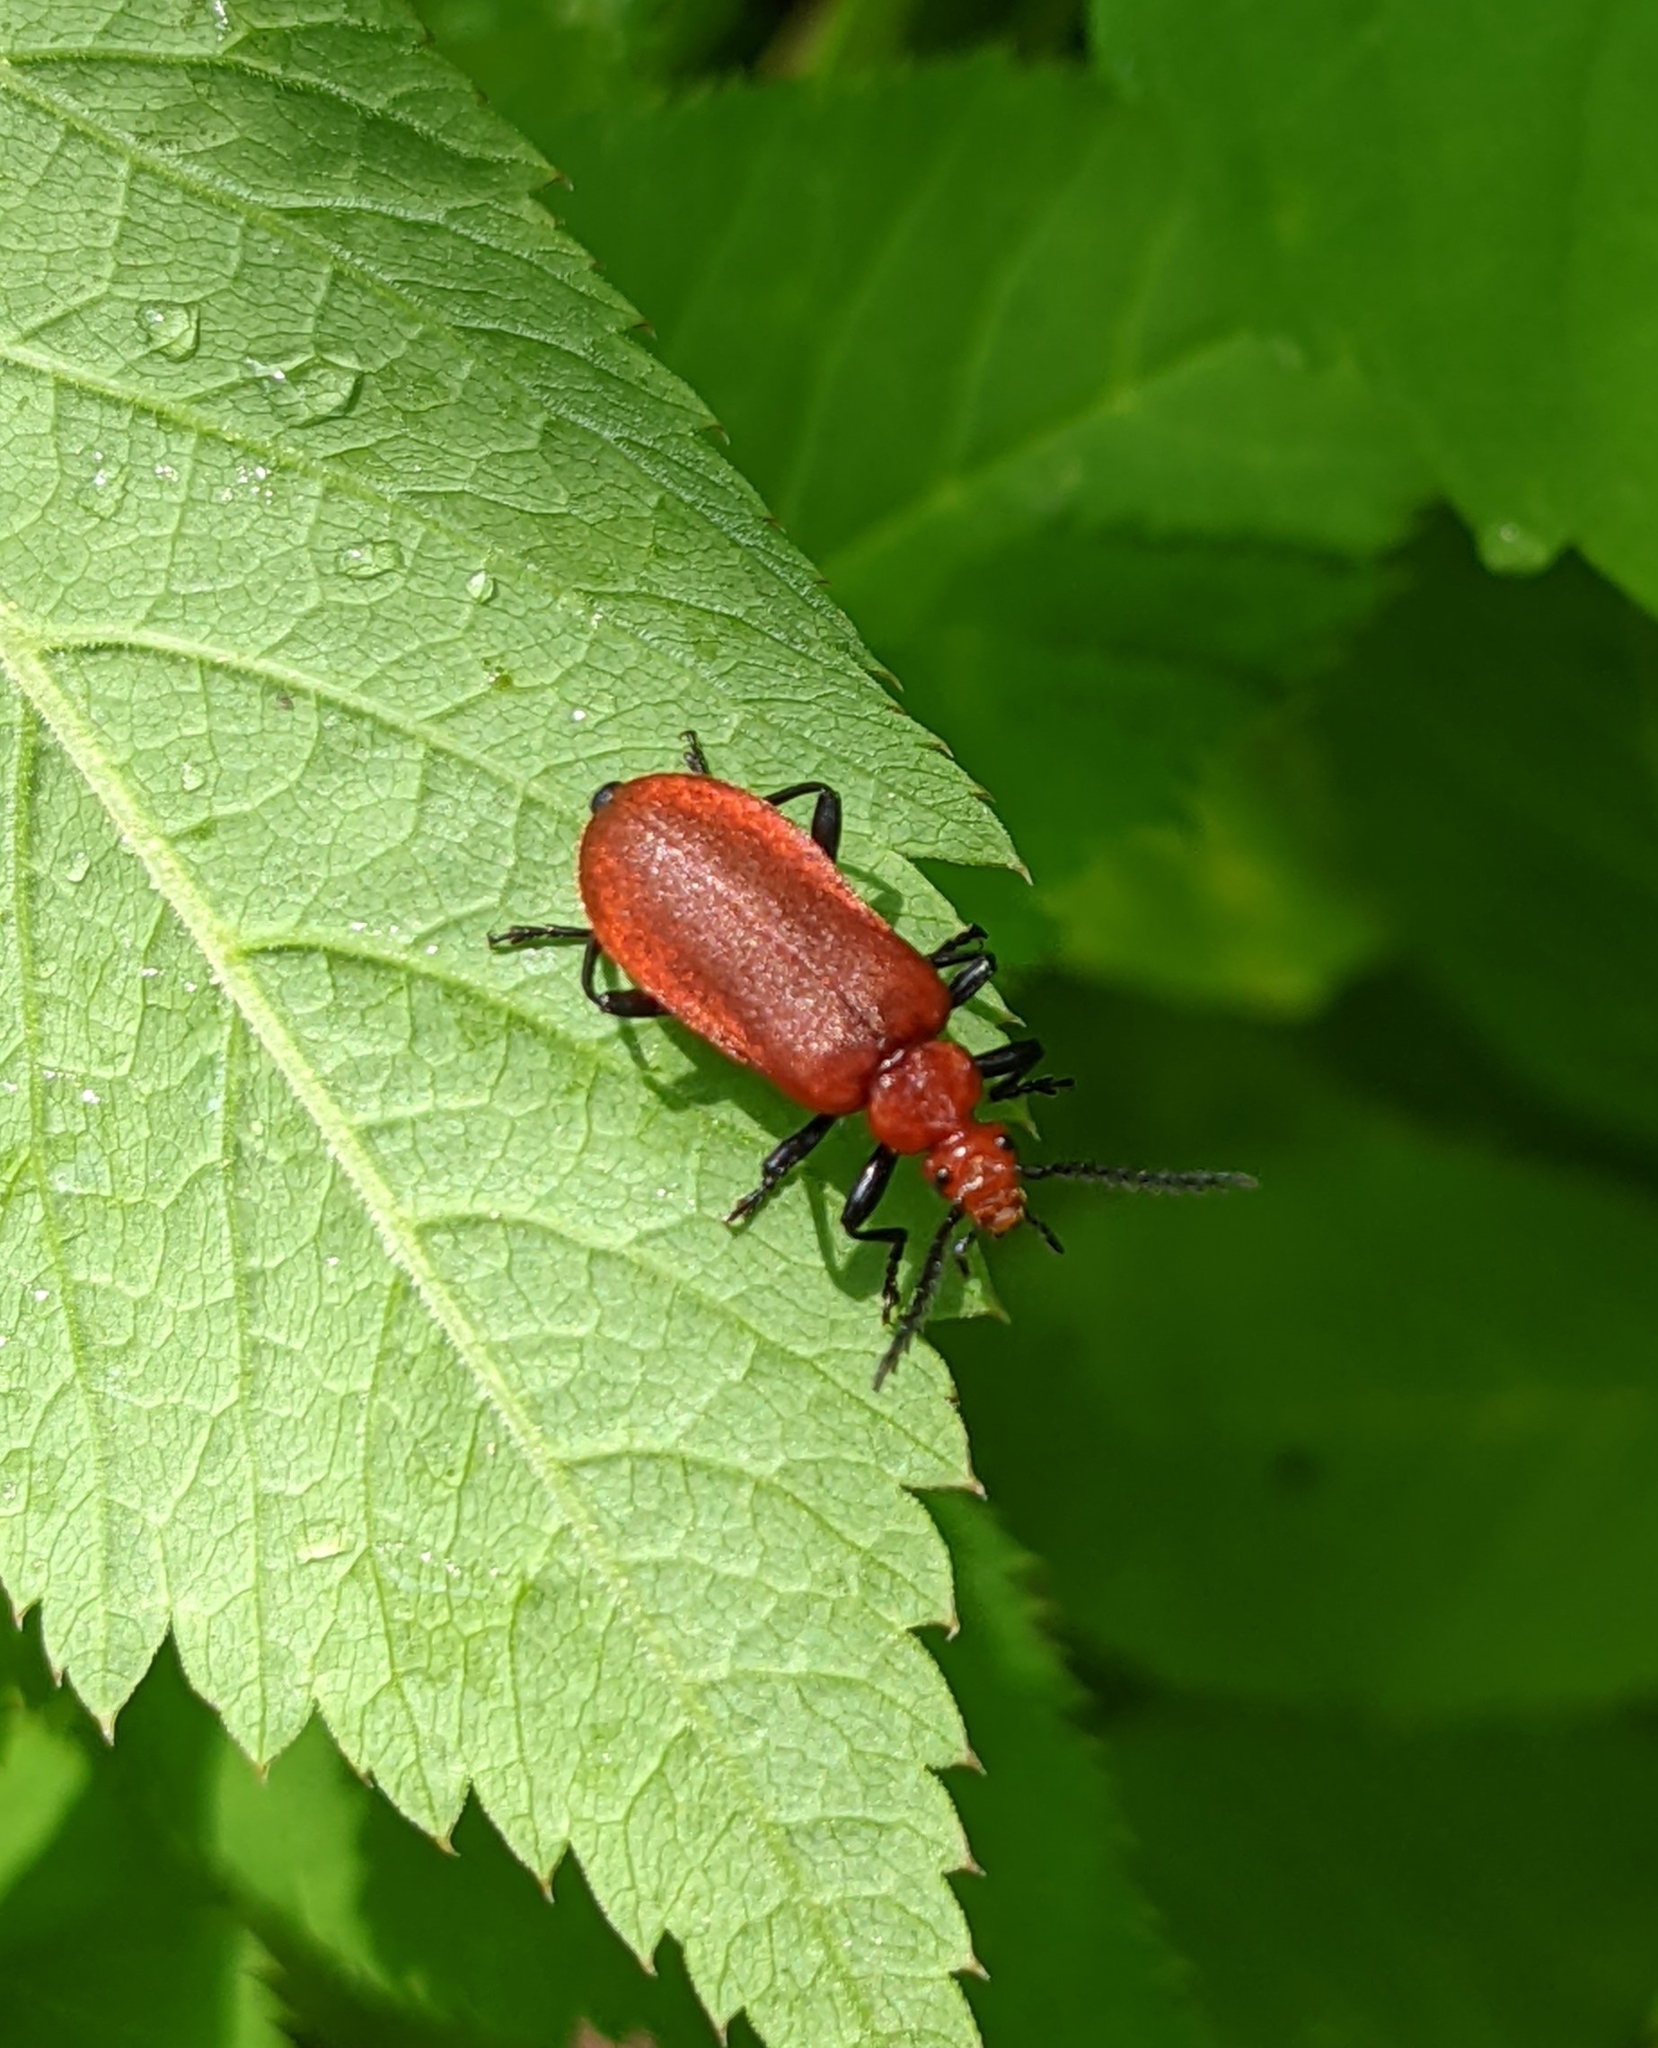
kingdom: Animalia
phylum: Arthropoda
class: Insecta
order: Coleoptera
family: Pyrochroidae
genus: Pyrochroa
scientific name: Pyrochroa serraticornis
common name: Red-headed cardinal beetle
